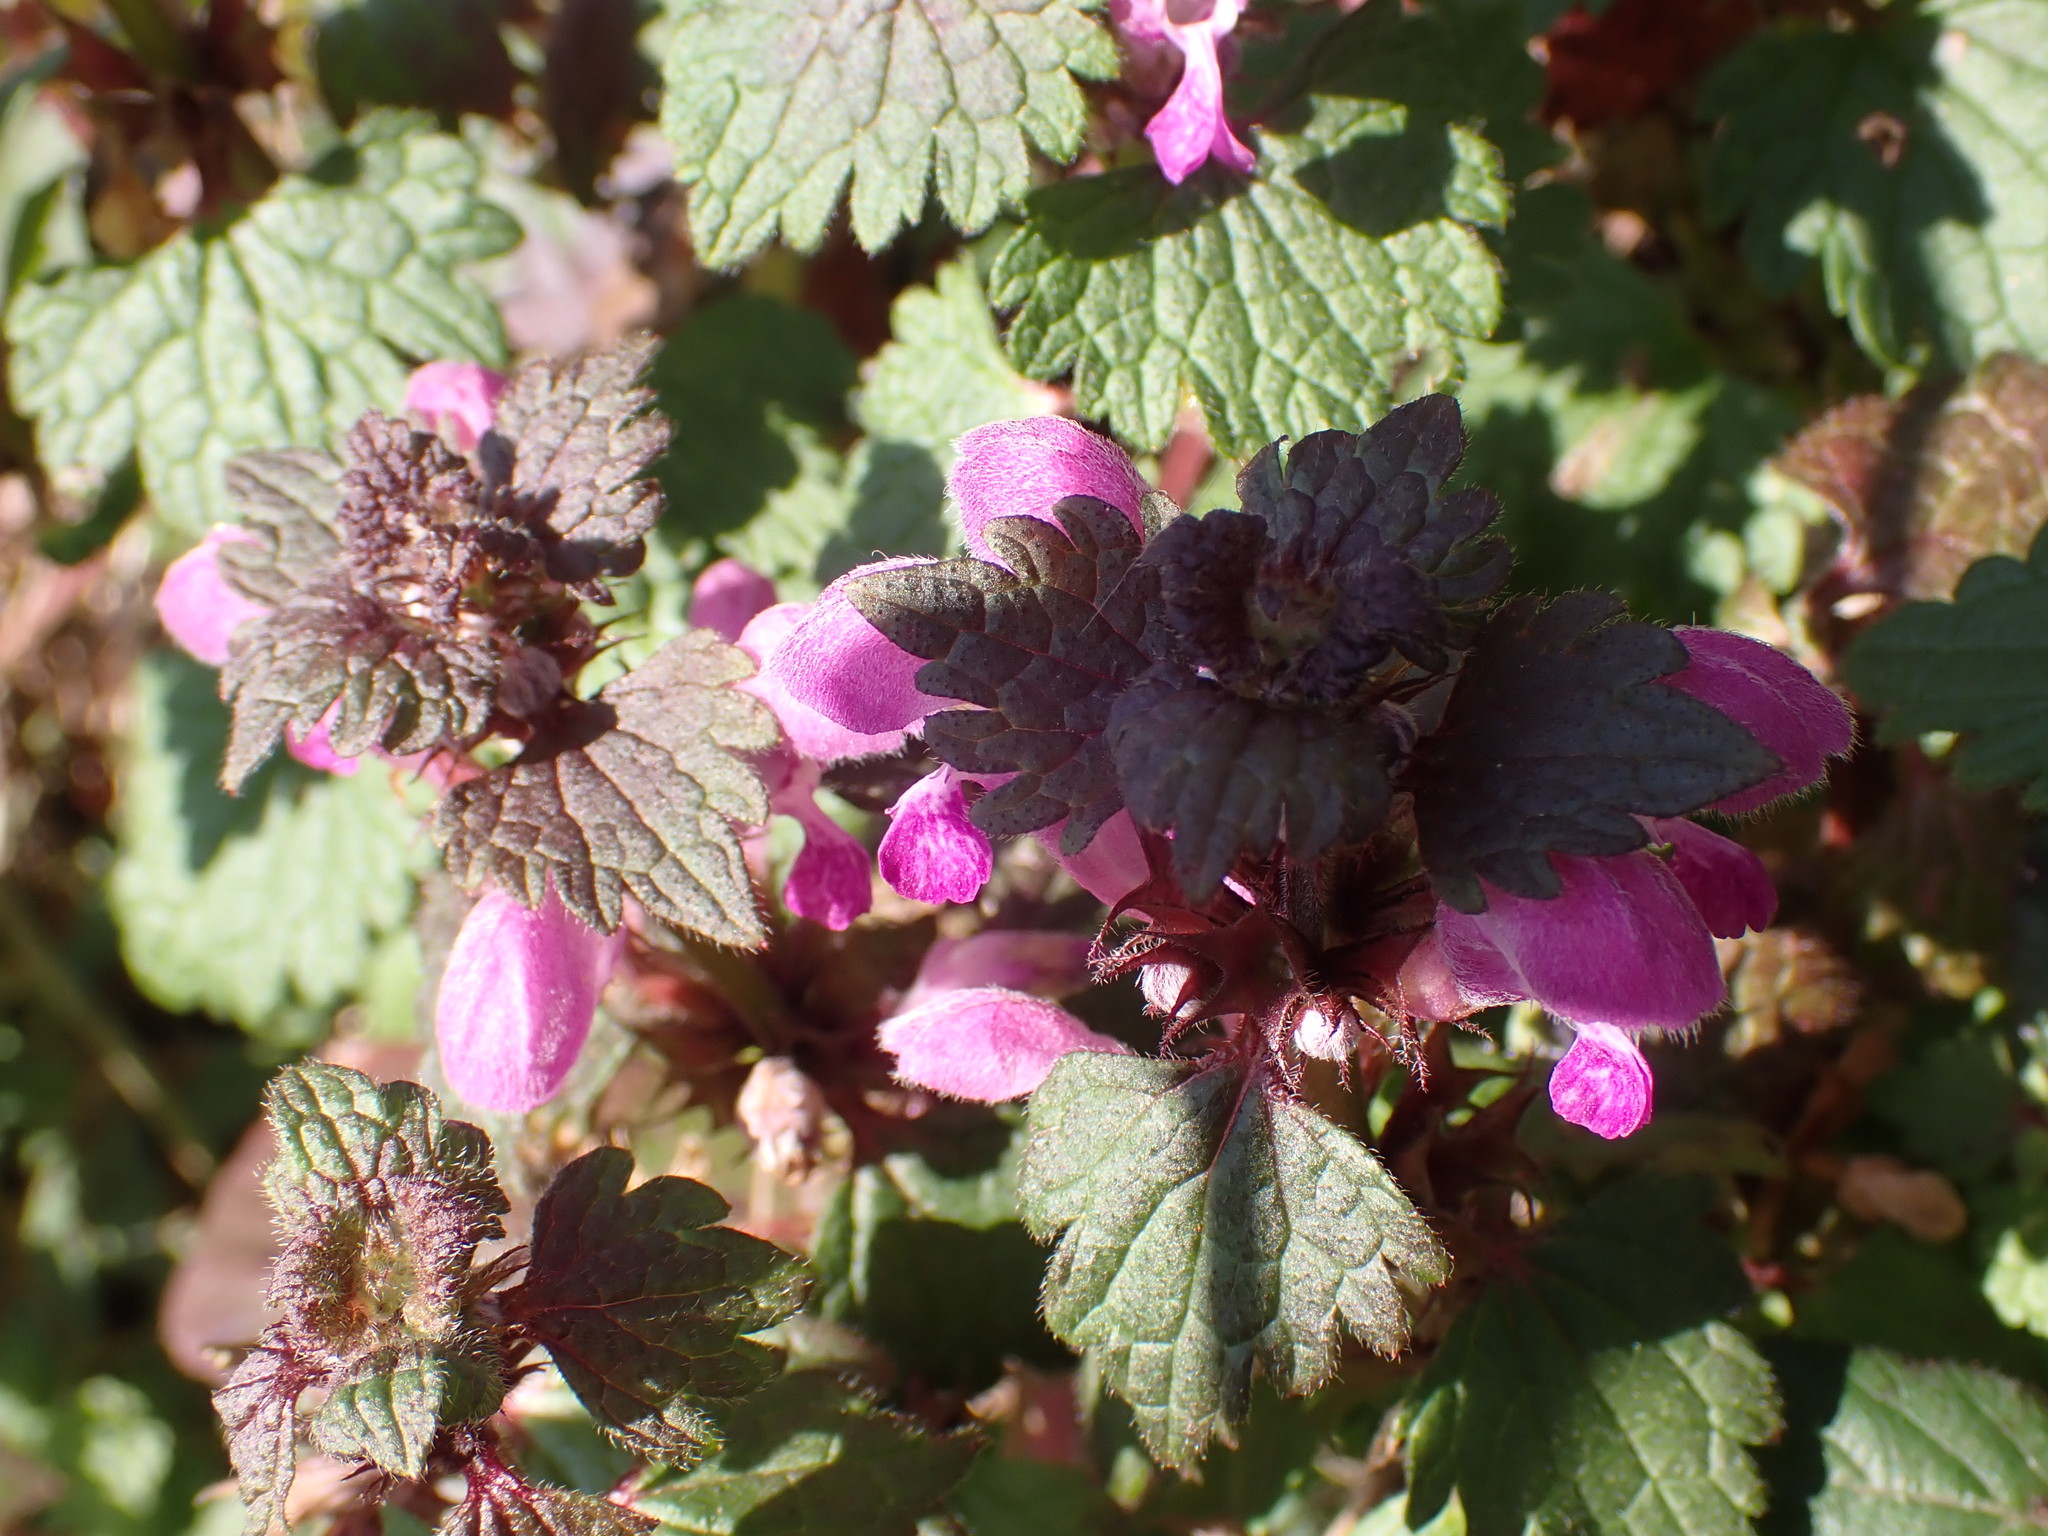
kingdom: Plantae
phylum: Tracheophyta
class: Magnoliopsida
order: Lamiales
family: Lamiaceae
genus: Lamium
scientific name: Lamium maculatum
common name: Spotted dead-nettle
